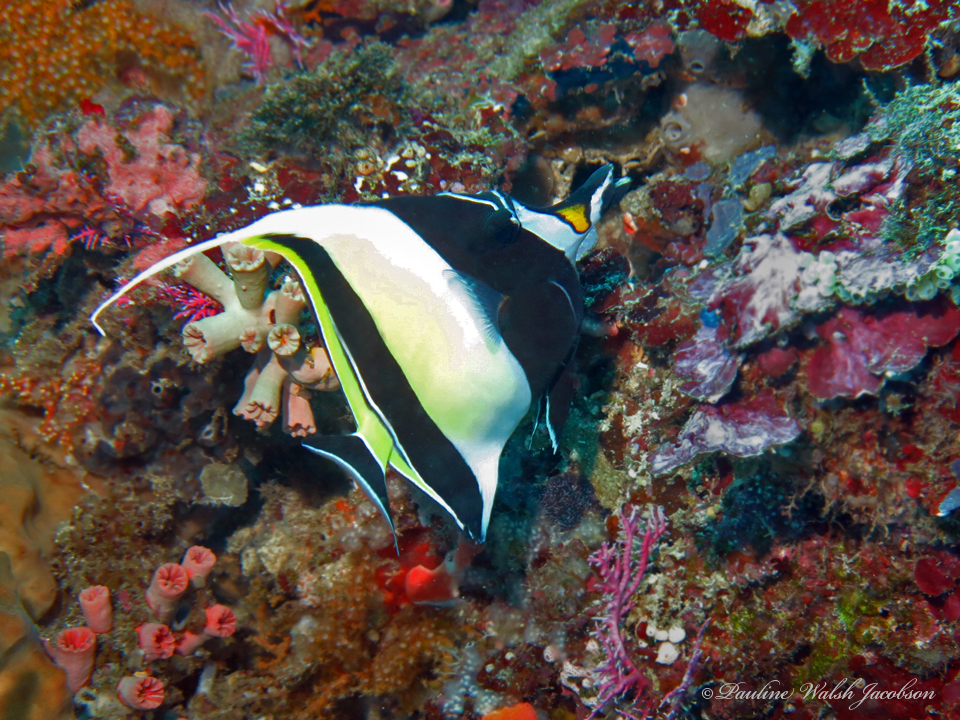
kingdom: Animalia
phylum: Chordata
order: Perciformes
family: Zanclidae
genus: Zanclus
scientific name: Zanclus cornutus
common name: Moorish idol
